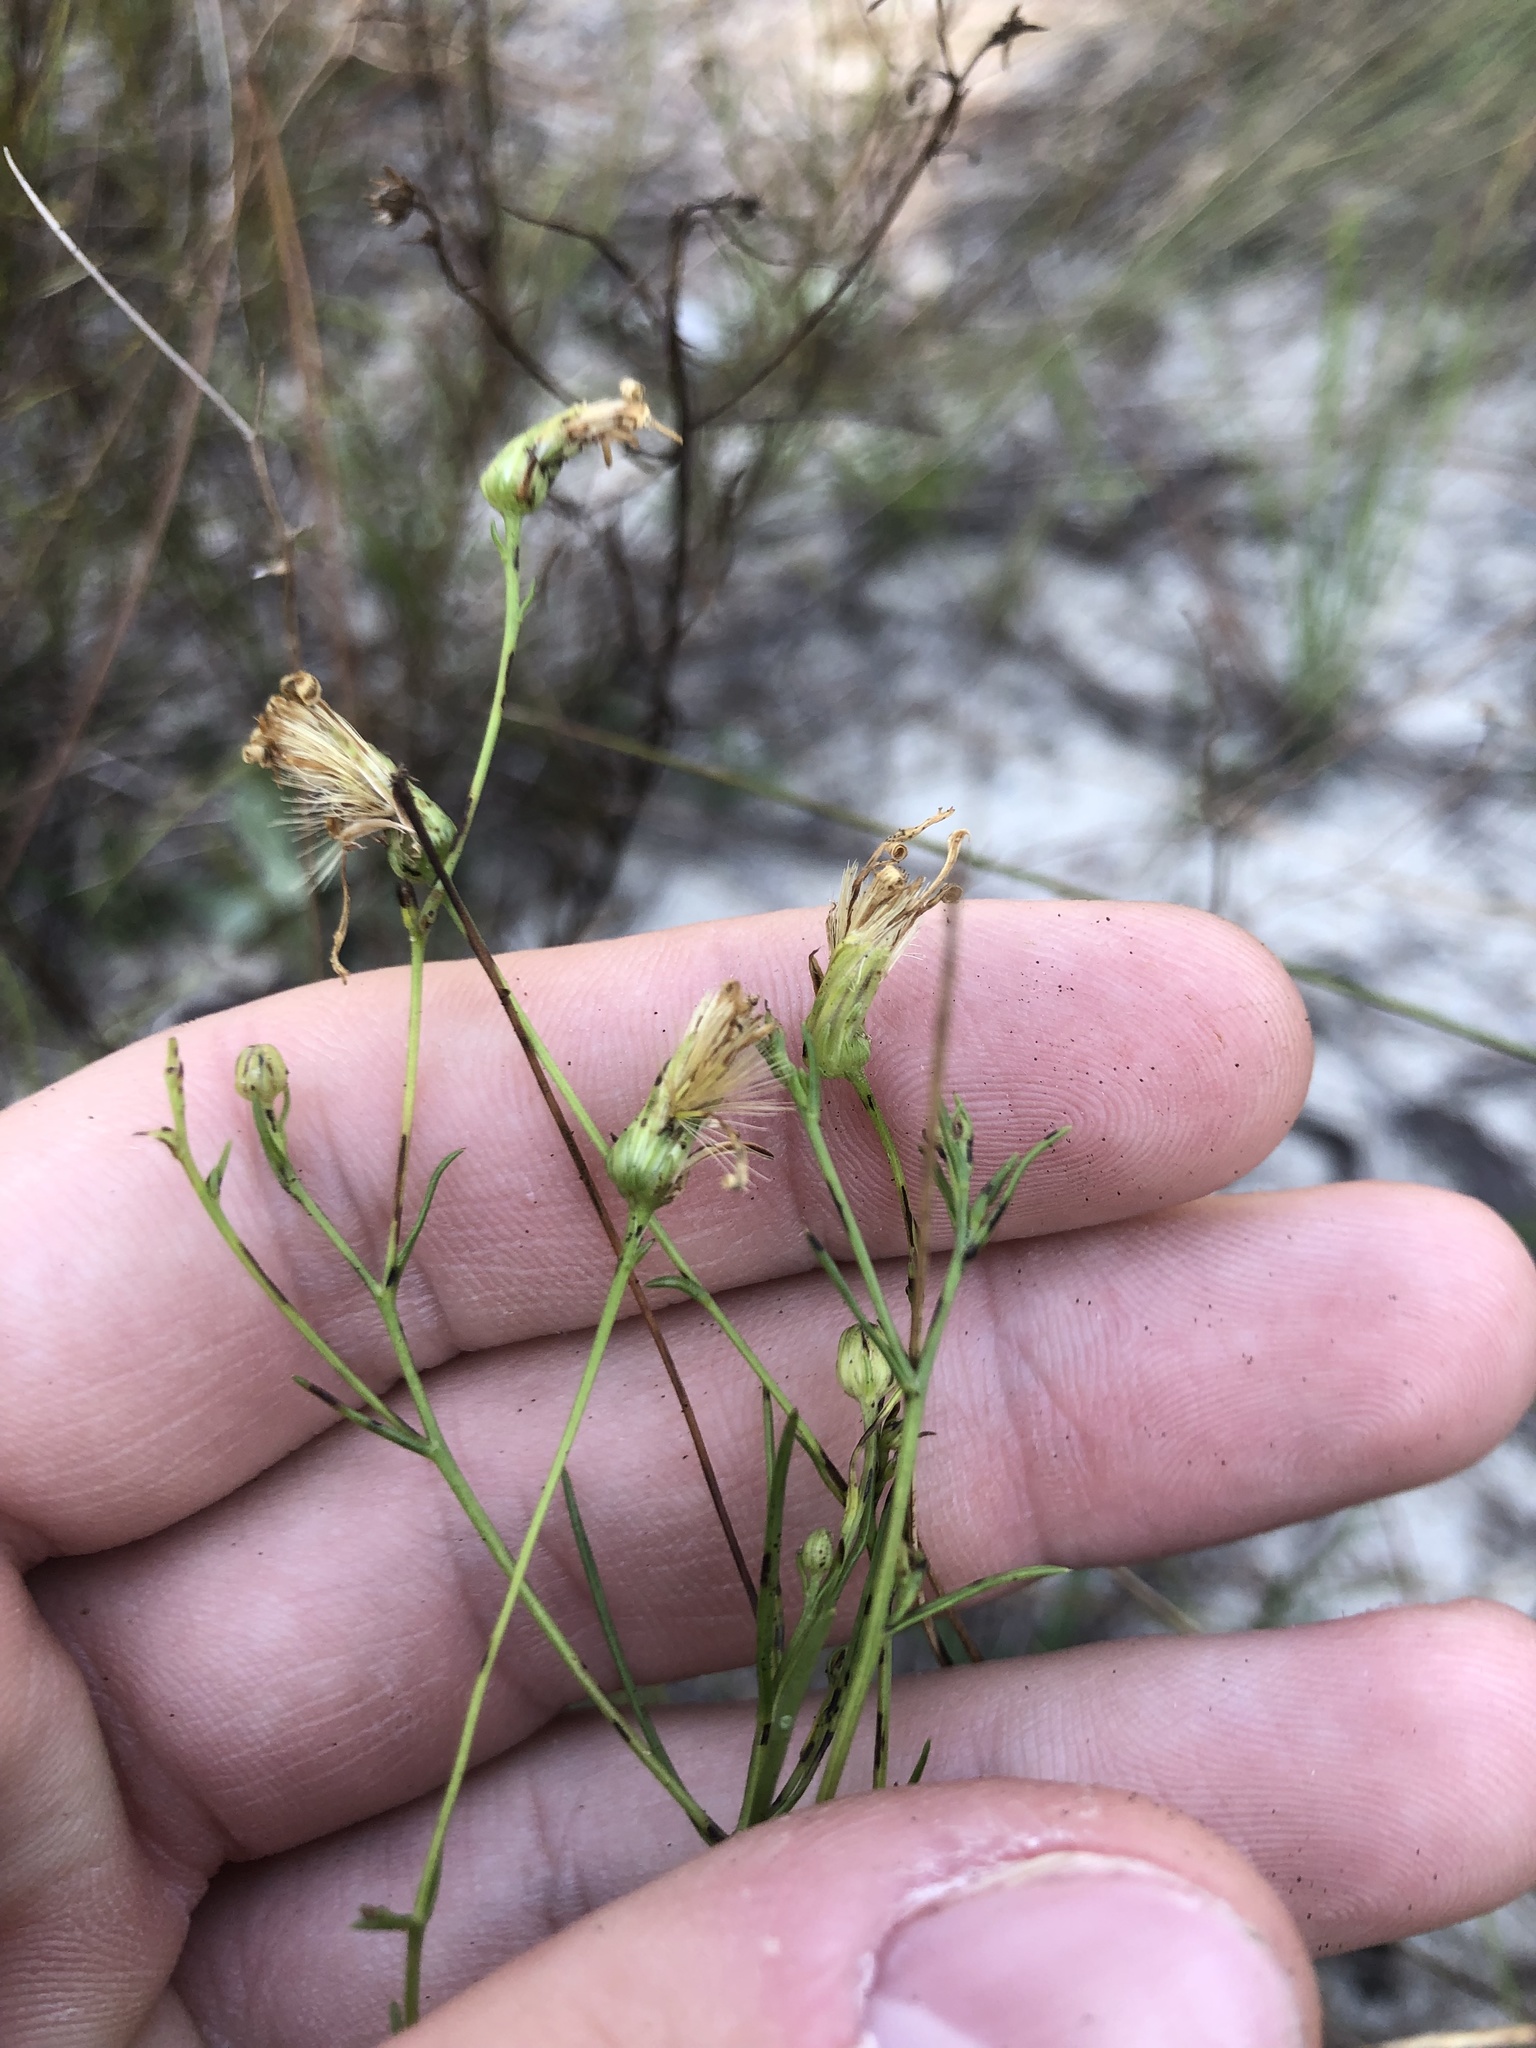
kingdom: Plantae
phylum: Tracheophyta
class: Magnoliopsida
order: Asterales
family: Asteraceae
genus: Pityopsis
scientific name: Pityopsis pinifolia
